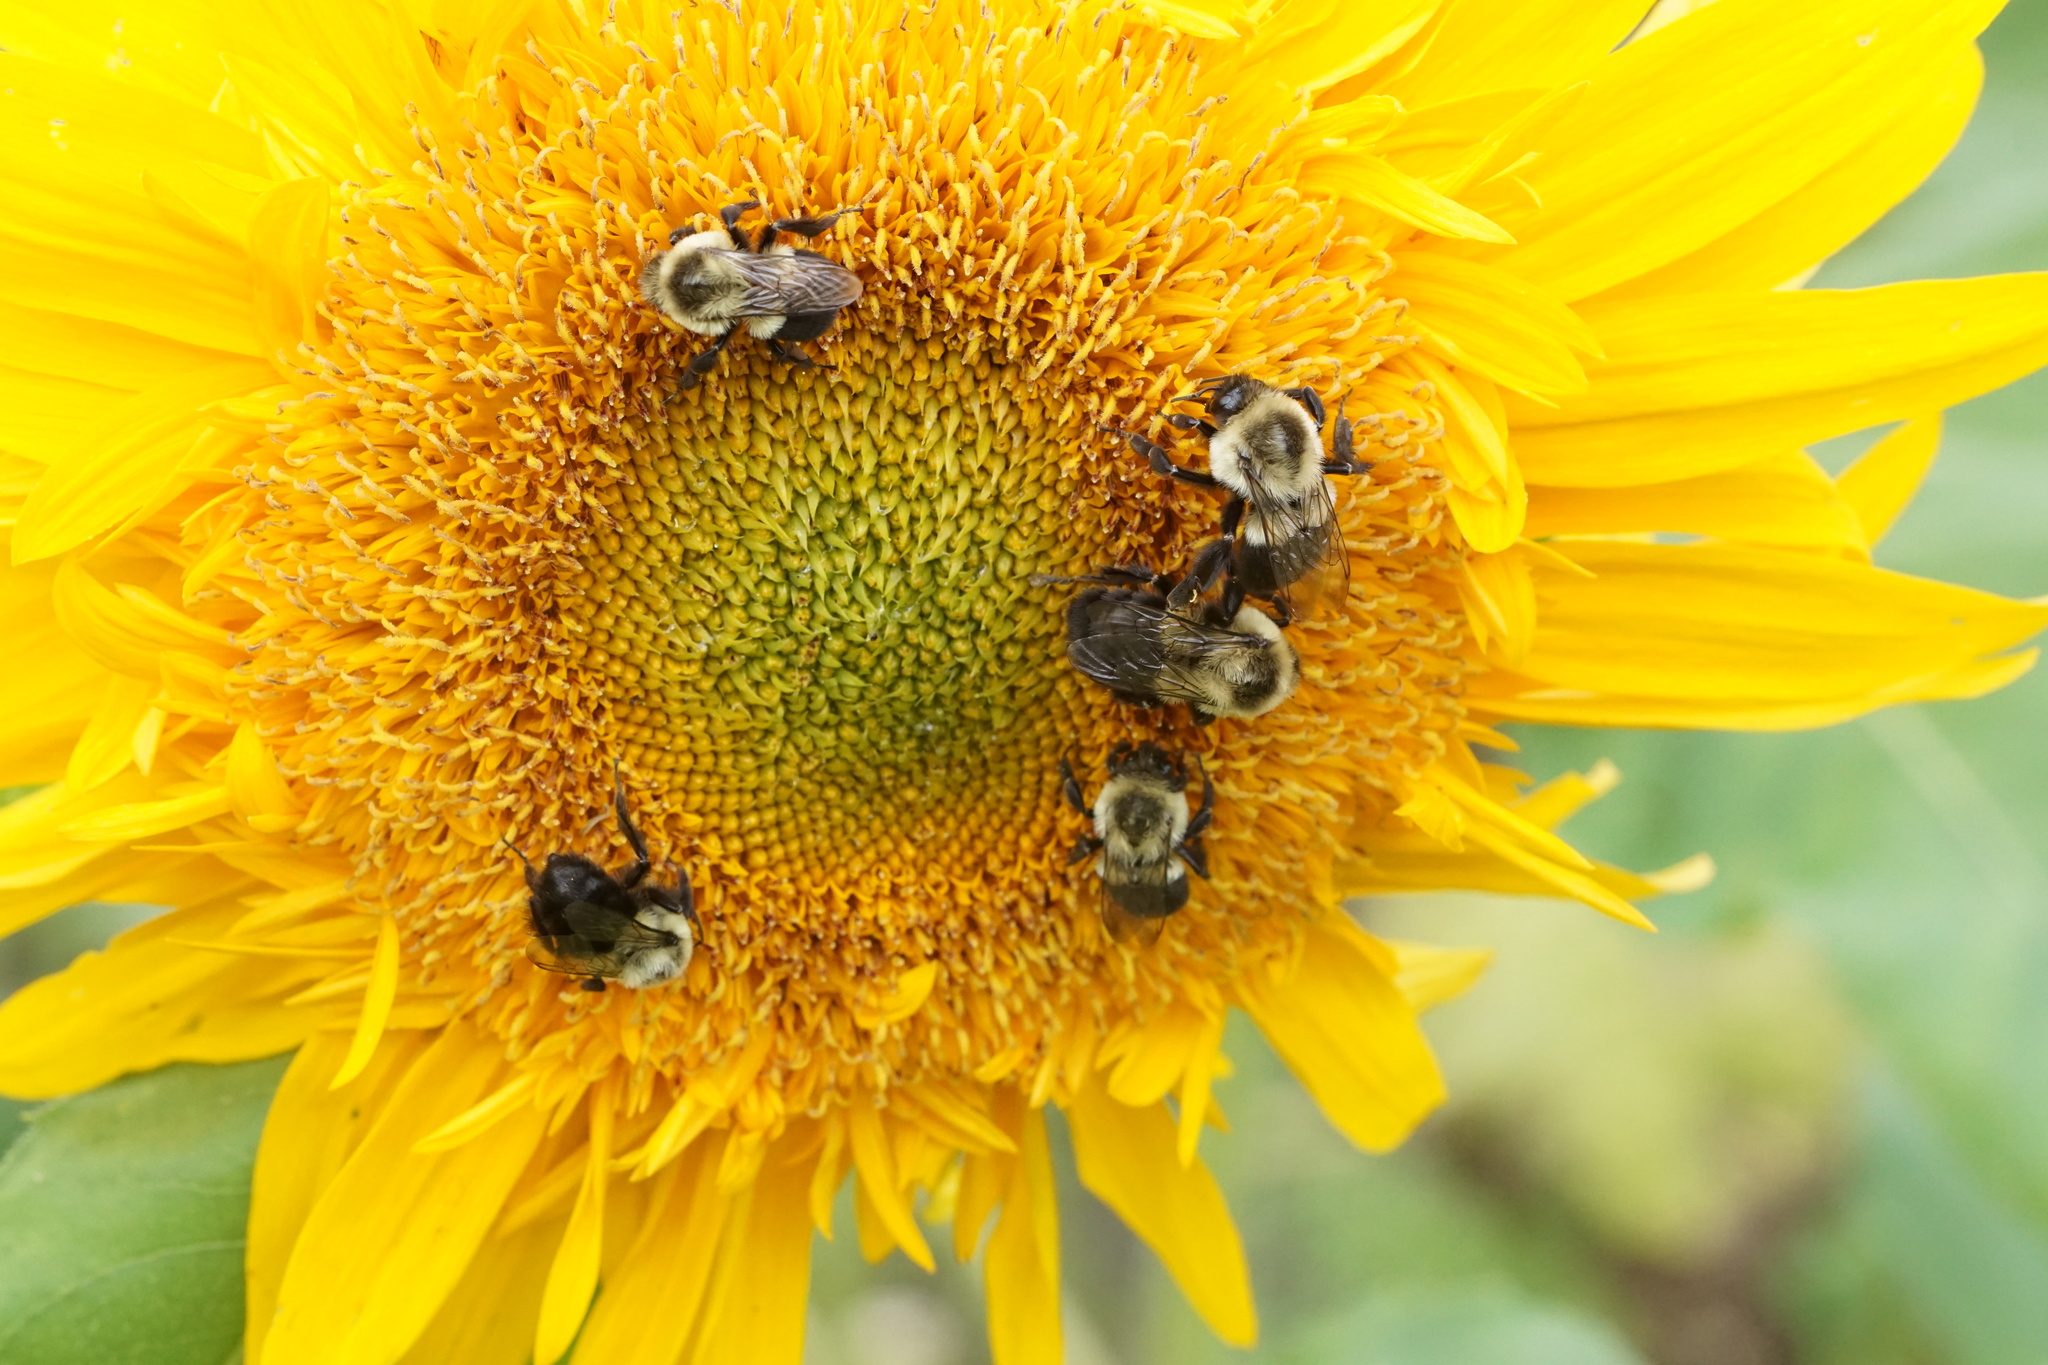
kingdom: Animalia
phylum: Arthropoda
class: Insecta
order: Hymenoptera
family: Apidae
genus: Bombus
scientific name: Bombus impatiens
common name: Common eastern bumble bee
